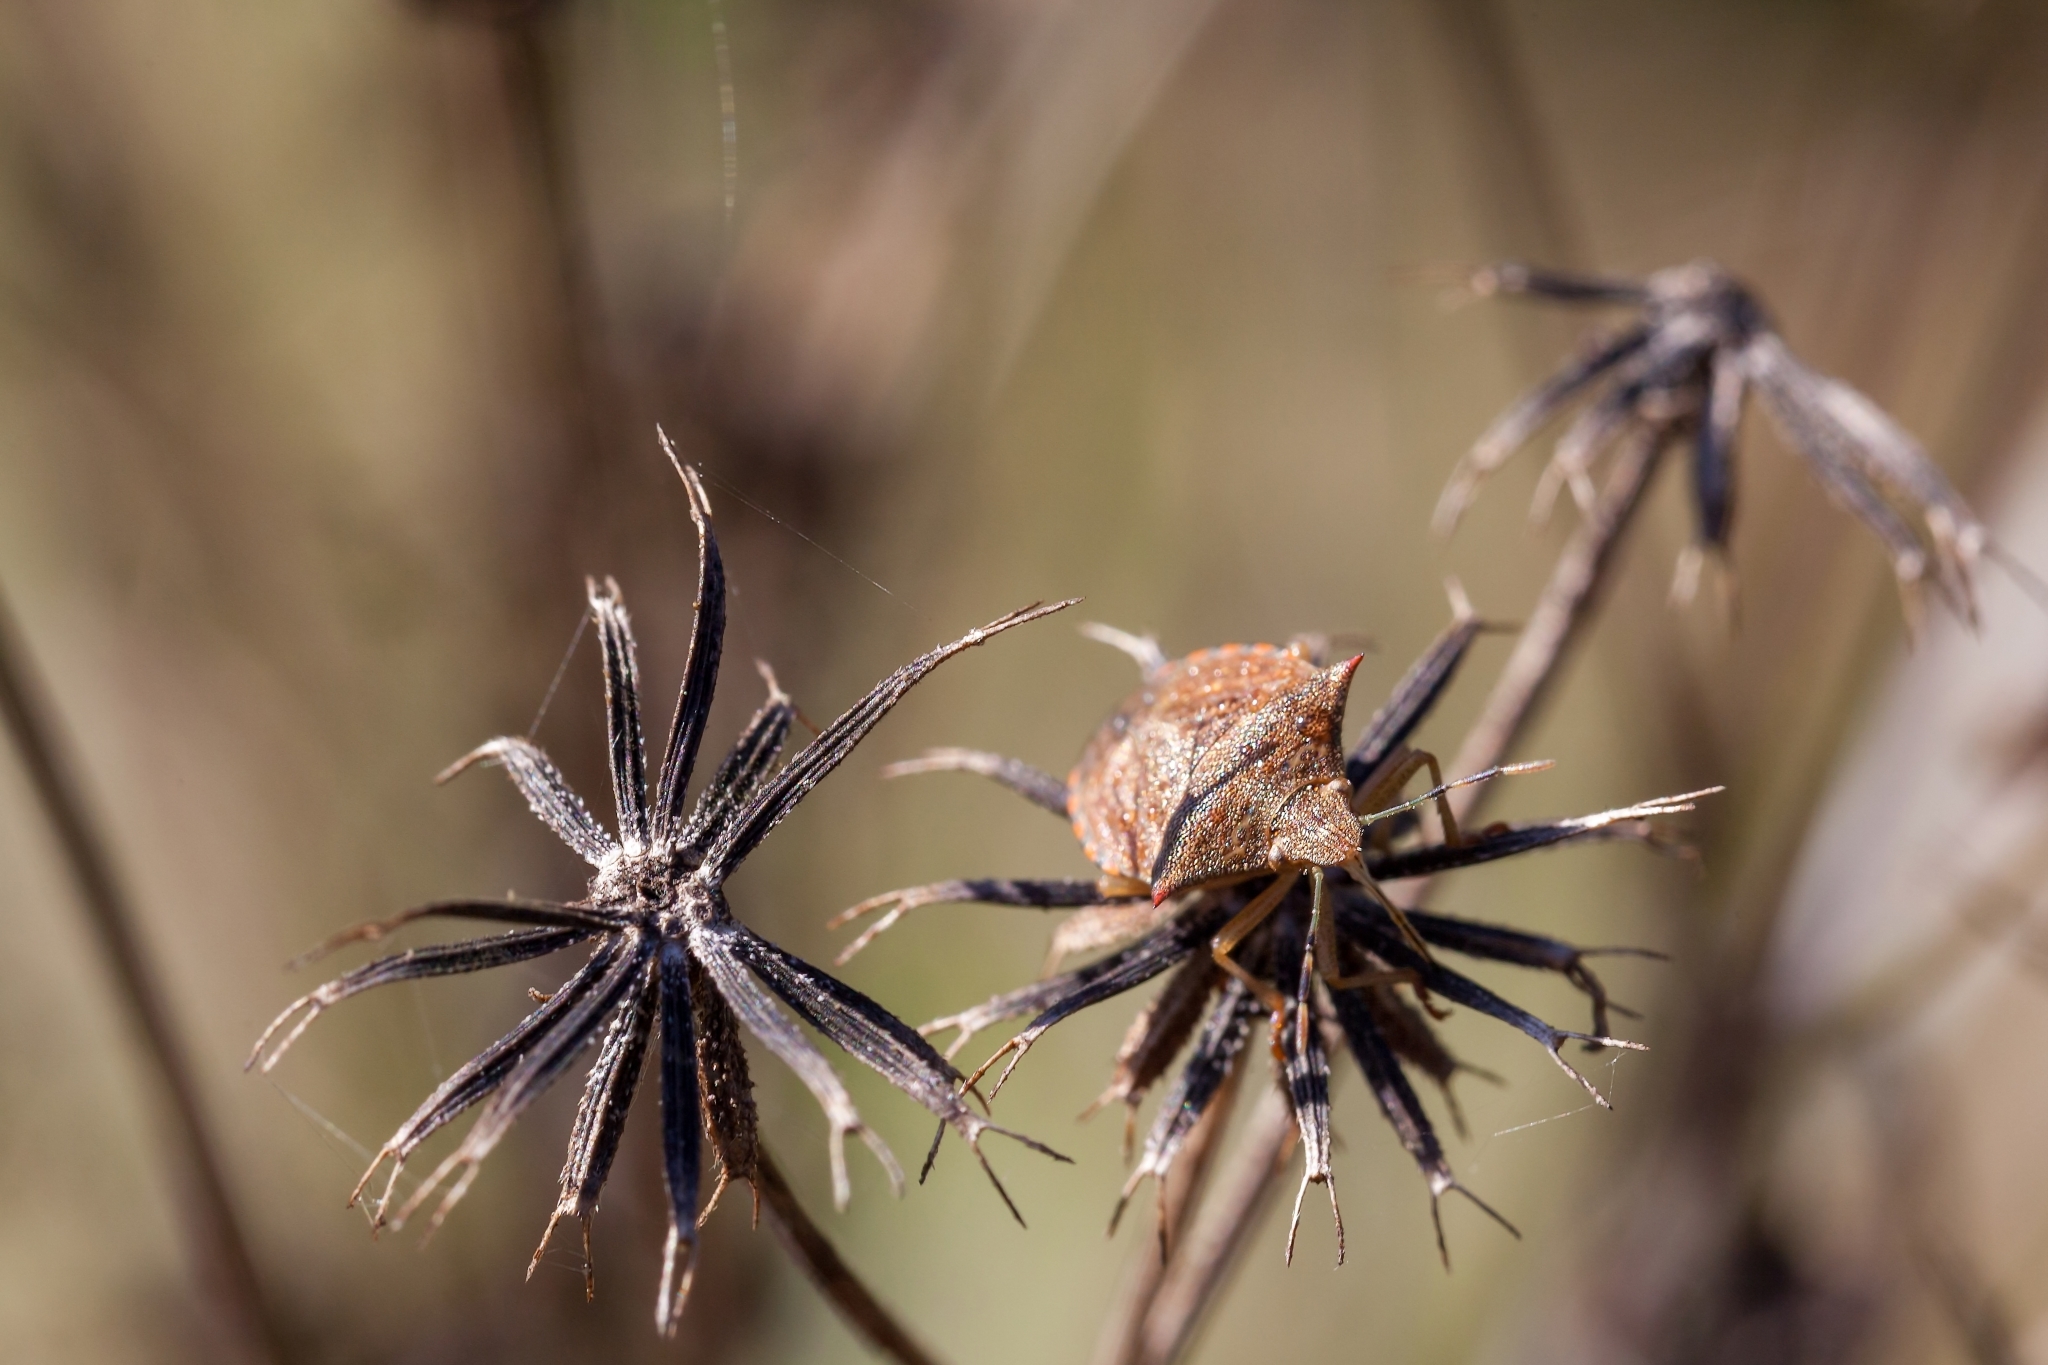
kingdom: Animalia
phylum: Arthropoda
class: Insecta
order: Hemiptera
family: Pentatomidae
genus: Thyanta
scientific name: Thyanta perditor
